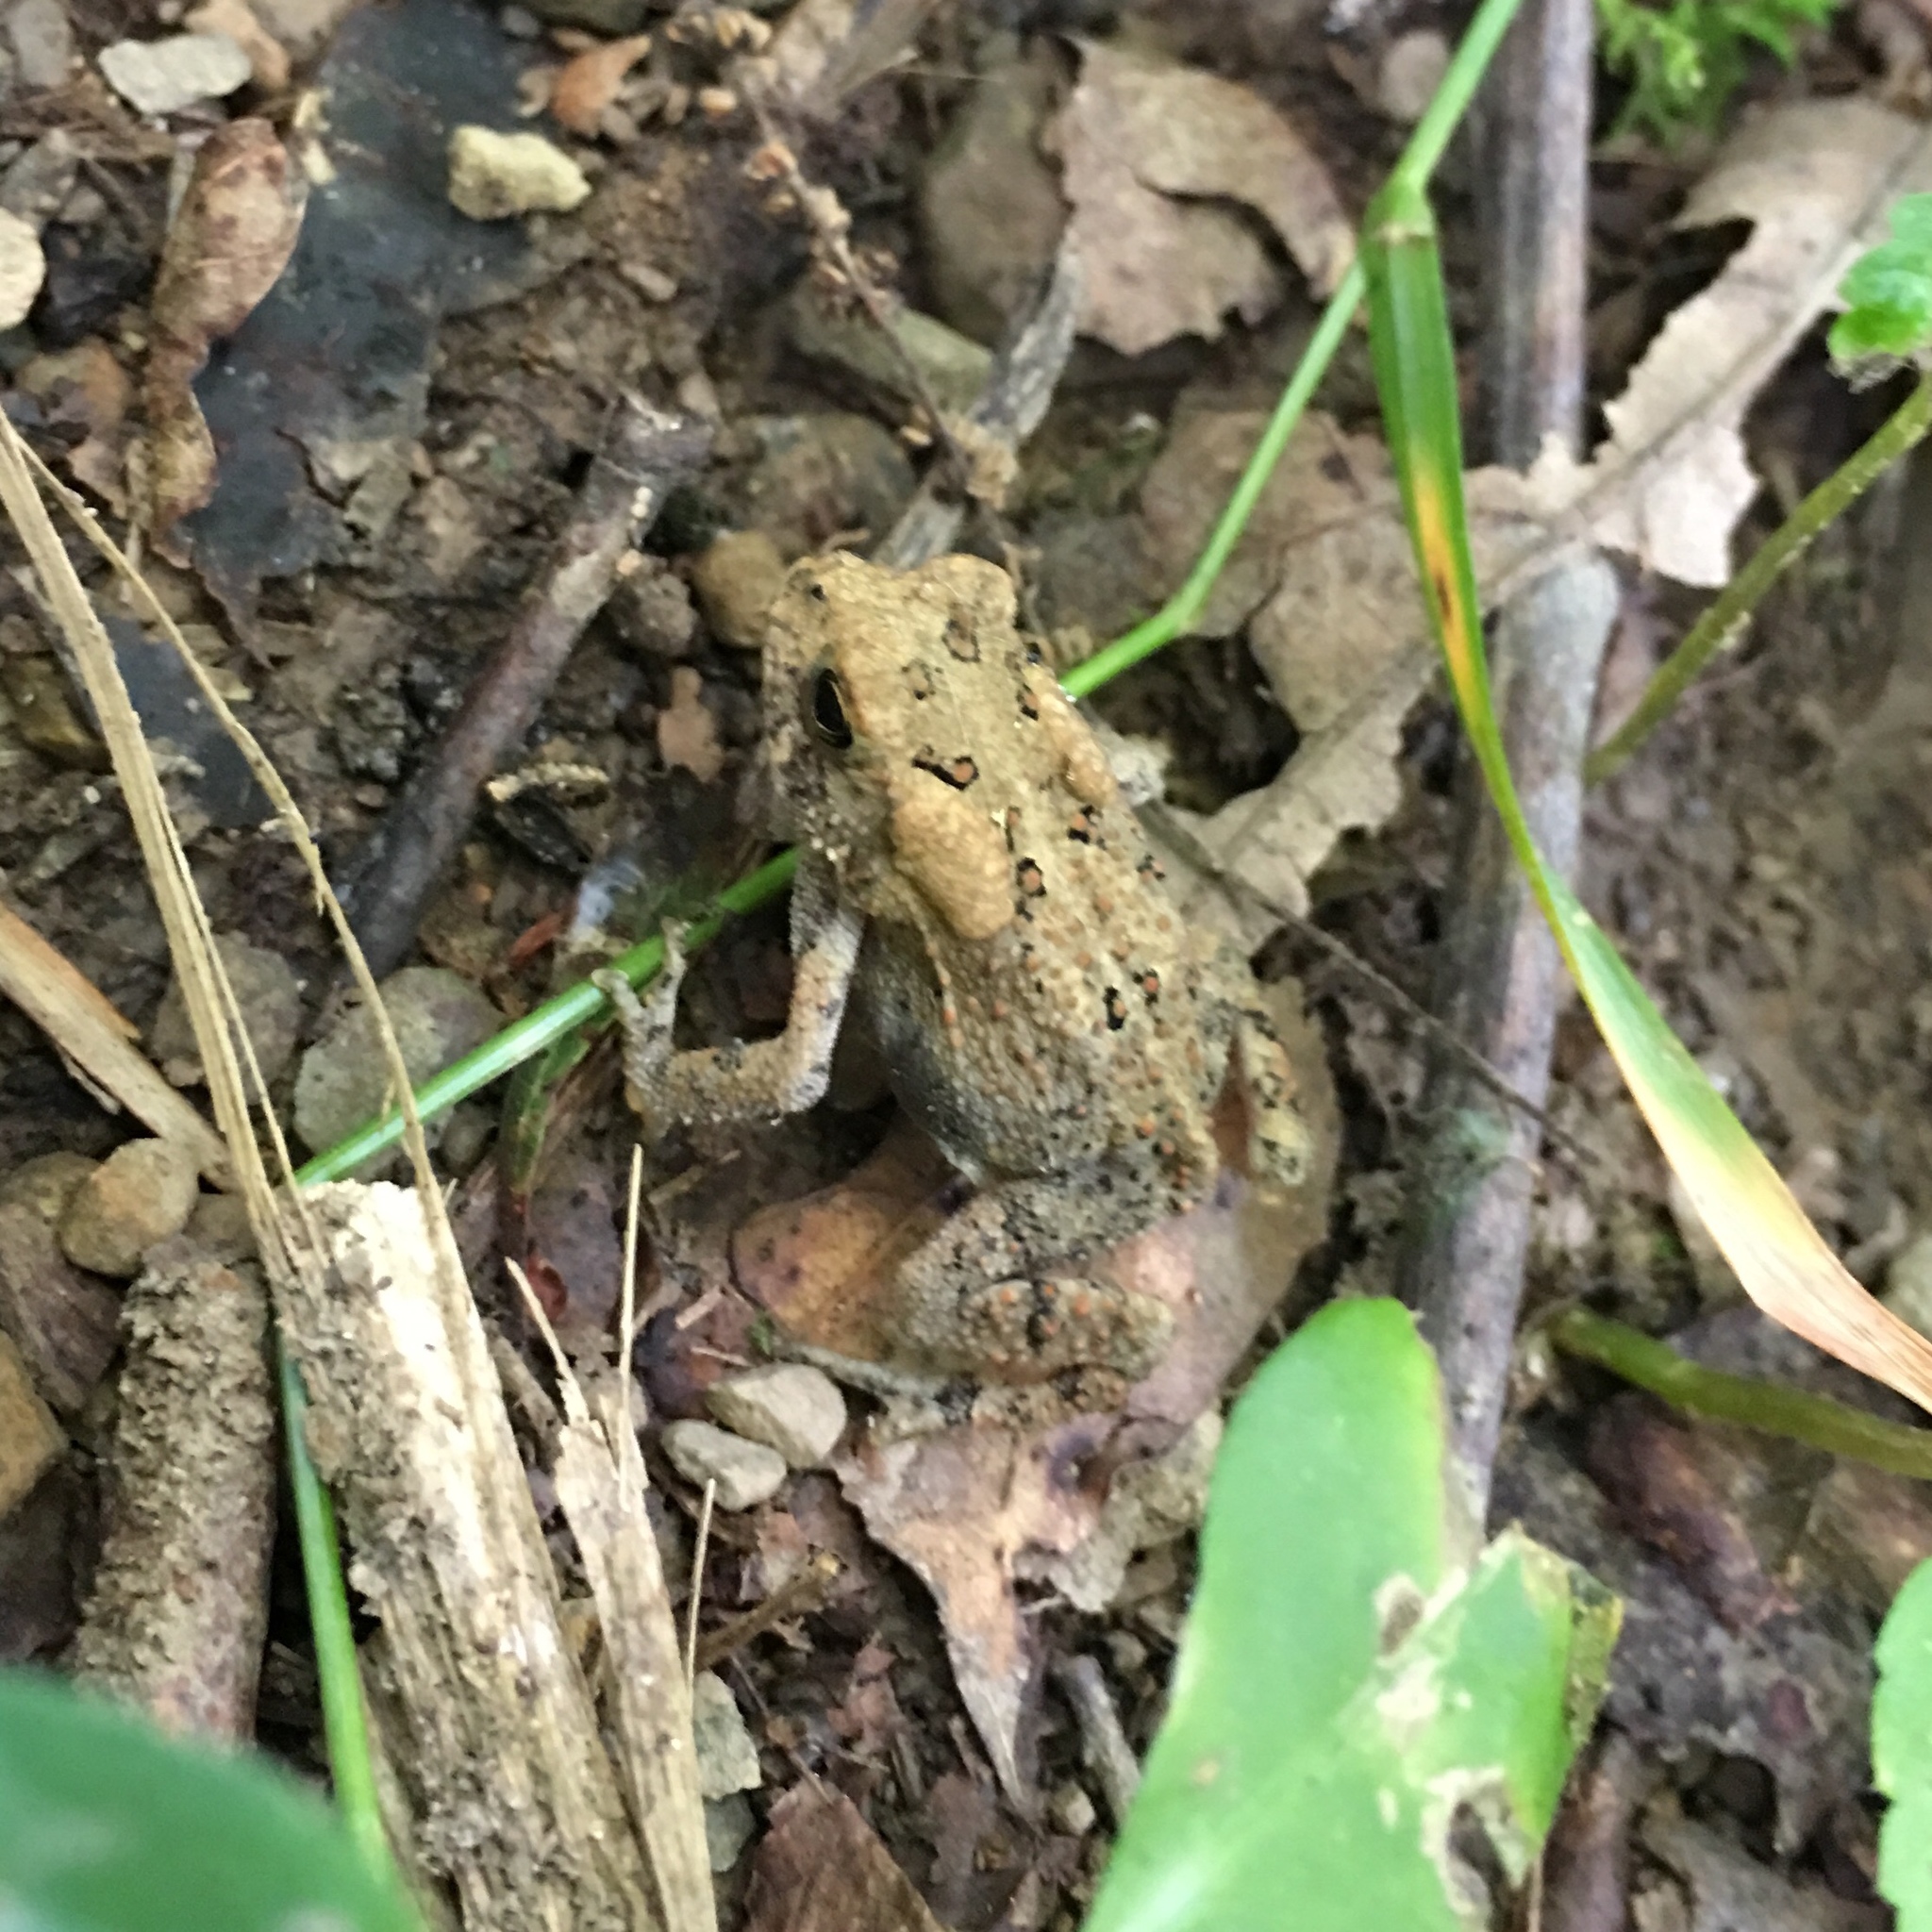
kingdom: Animalia
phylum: Chordata
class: Amphibia
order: Anura
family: Bufonidae
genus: Anaxyrus
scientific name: Anaxyrus americanus
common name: American toad
